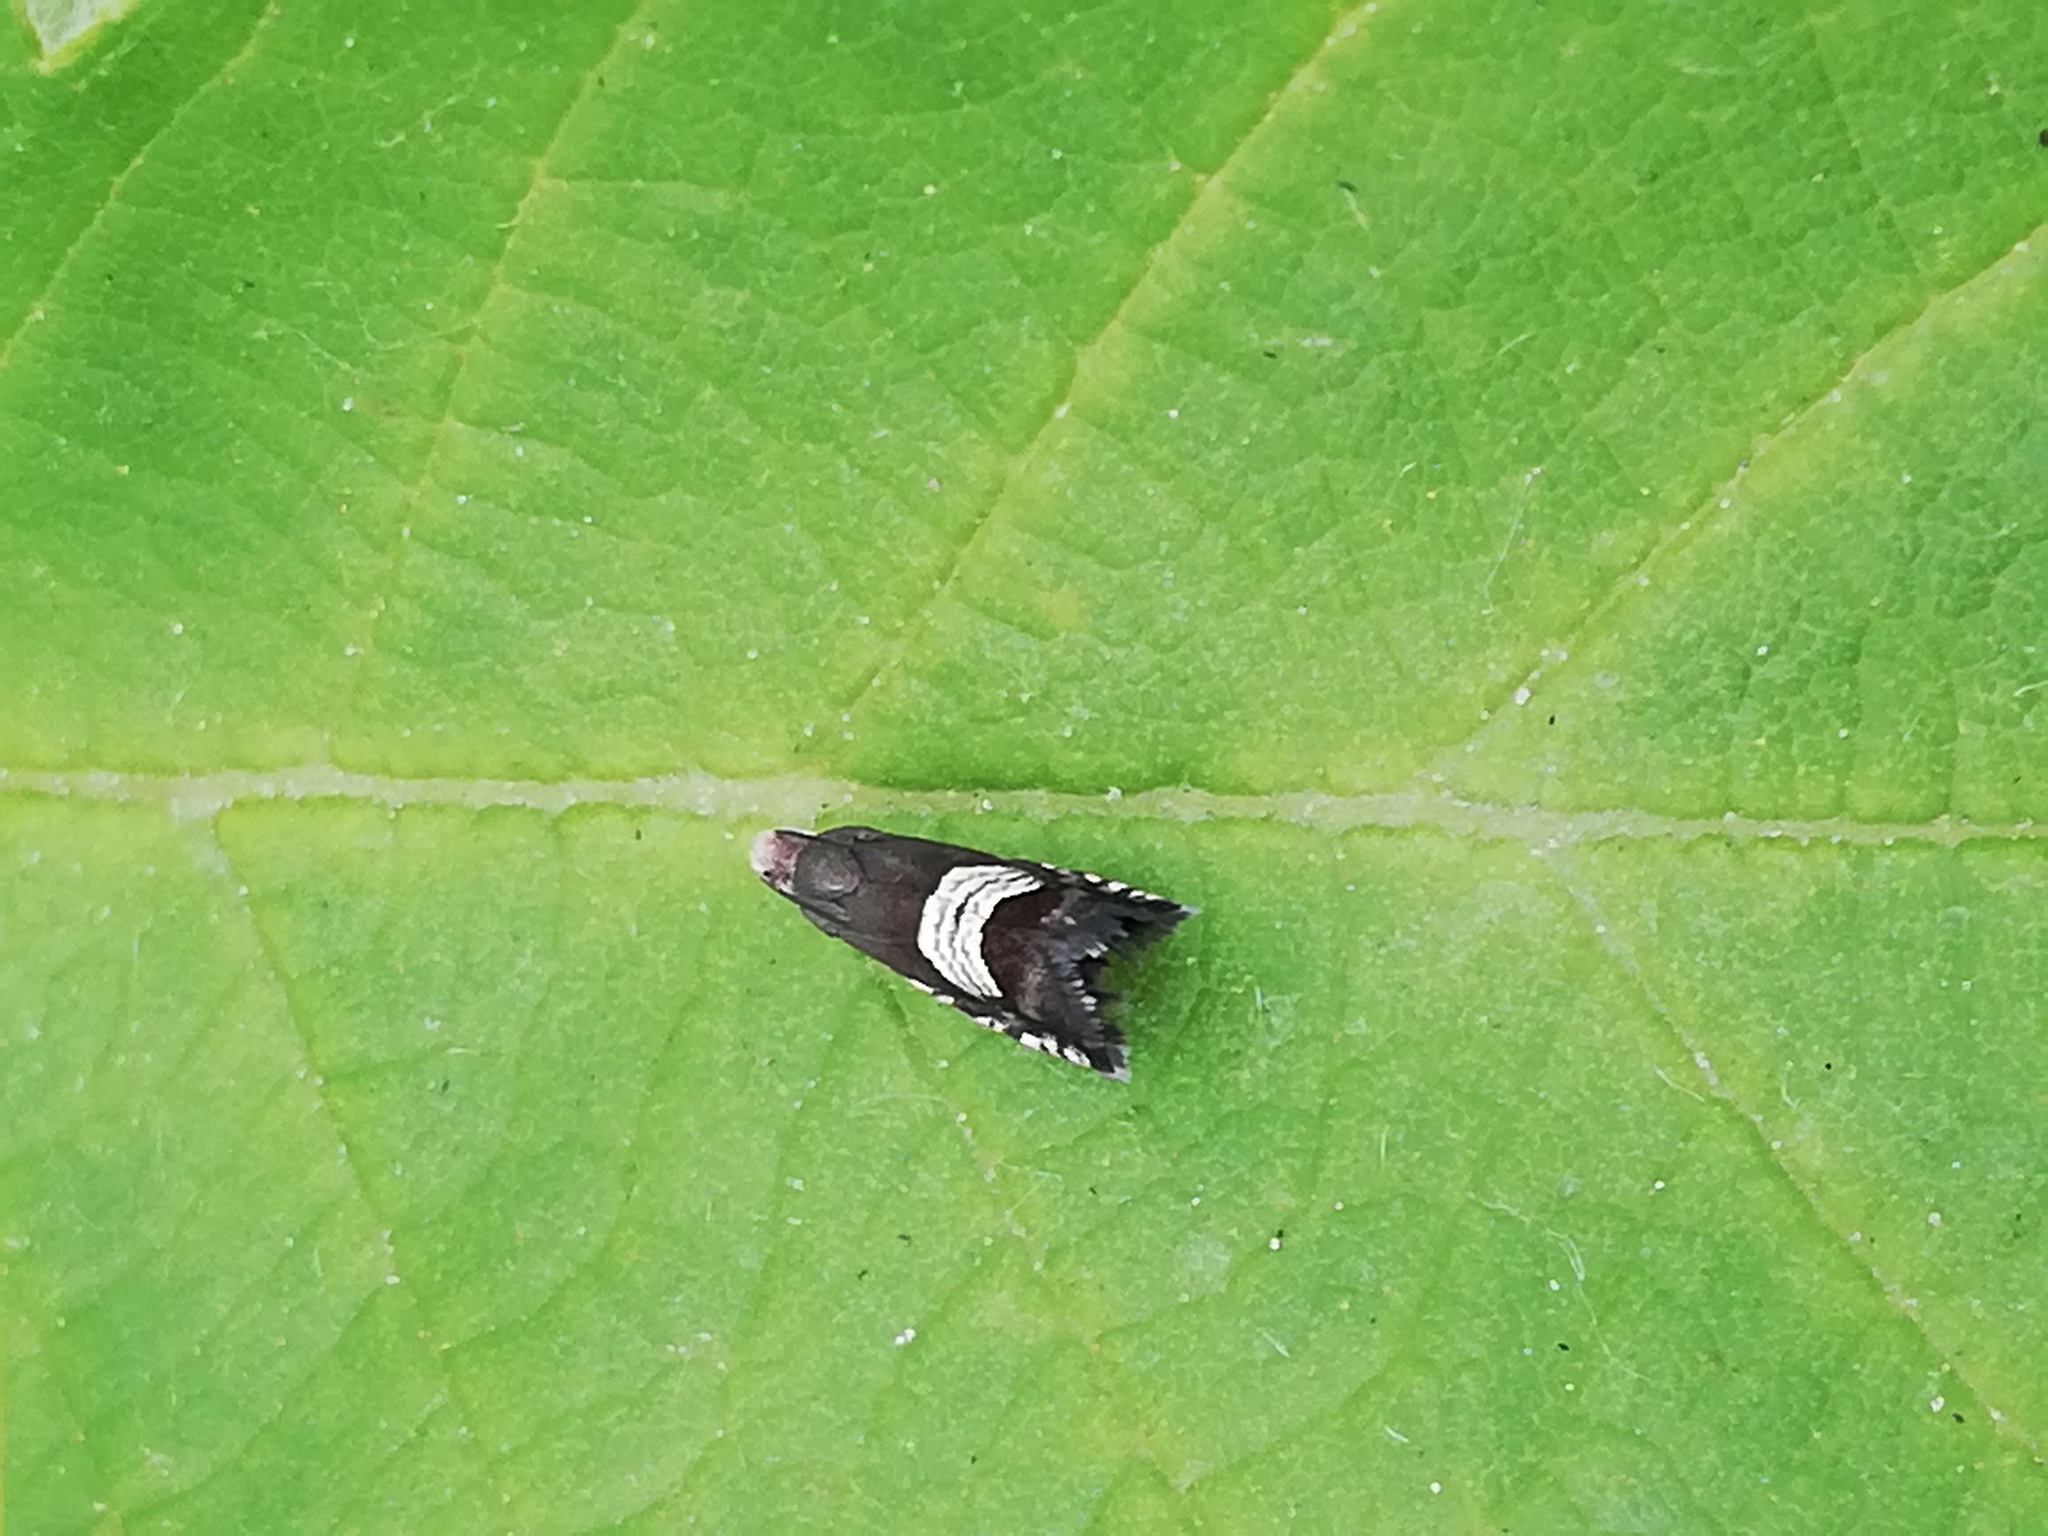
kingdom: Animalia
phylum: Arthropoda
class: Insecta
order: Lepidoptera
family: Tortricidae
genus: Grapholita
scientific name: Grapholita compositella
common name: Triple-stripe piercer
